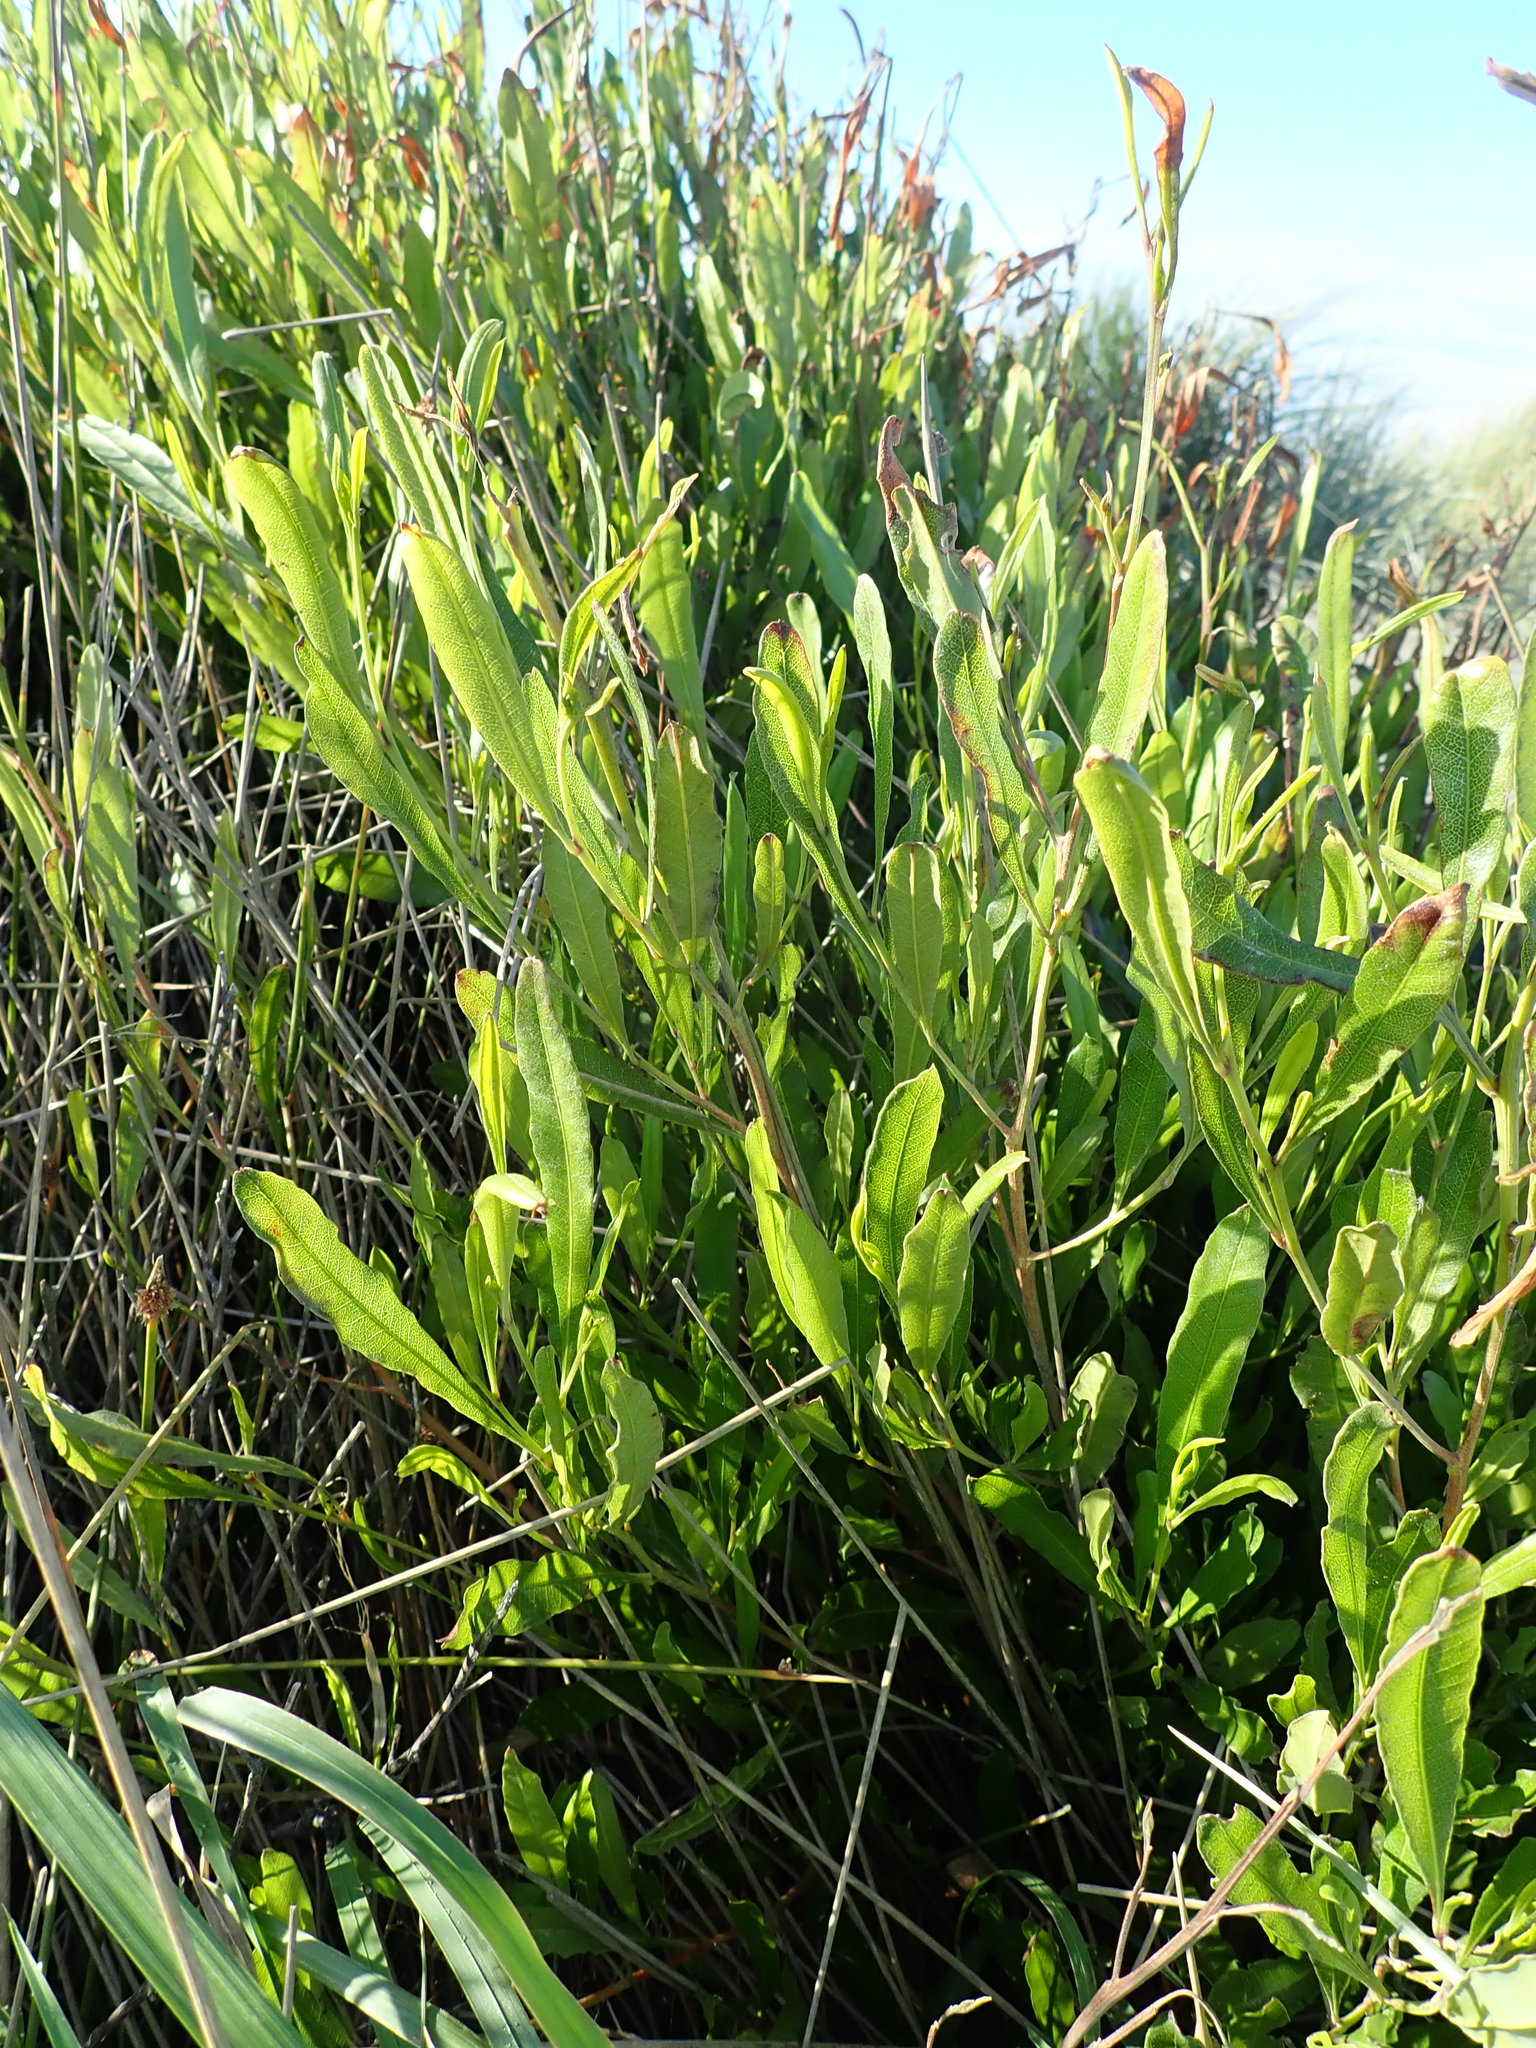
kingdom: Plantae
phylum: Tracheophyta
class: Magnoliopsida
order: Sapindales
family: Sapindaceae
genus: Dodonaea
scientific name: Dodonaea viscosa
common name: Hopbush
